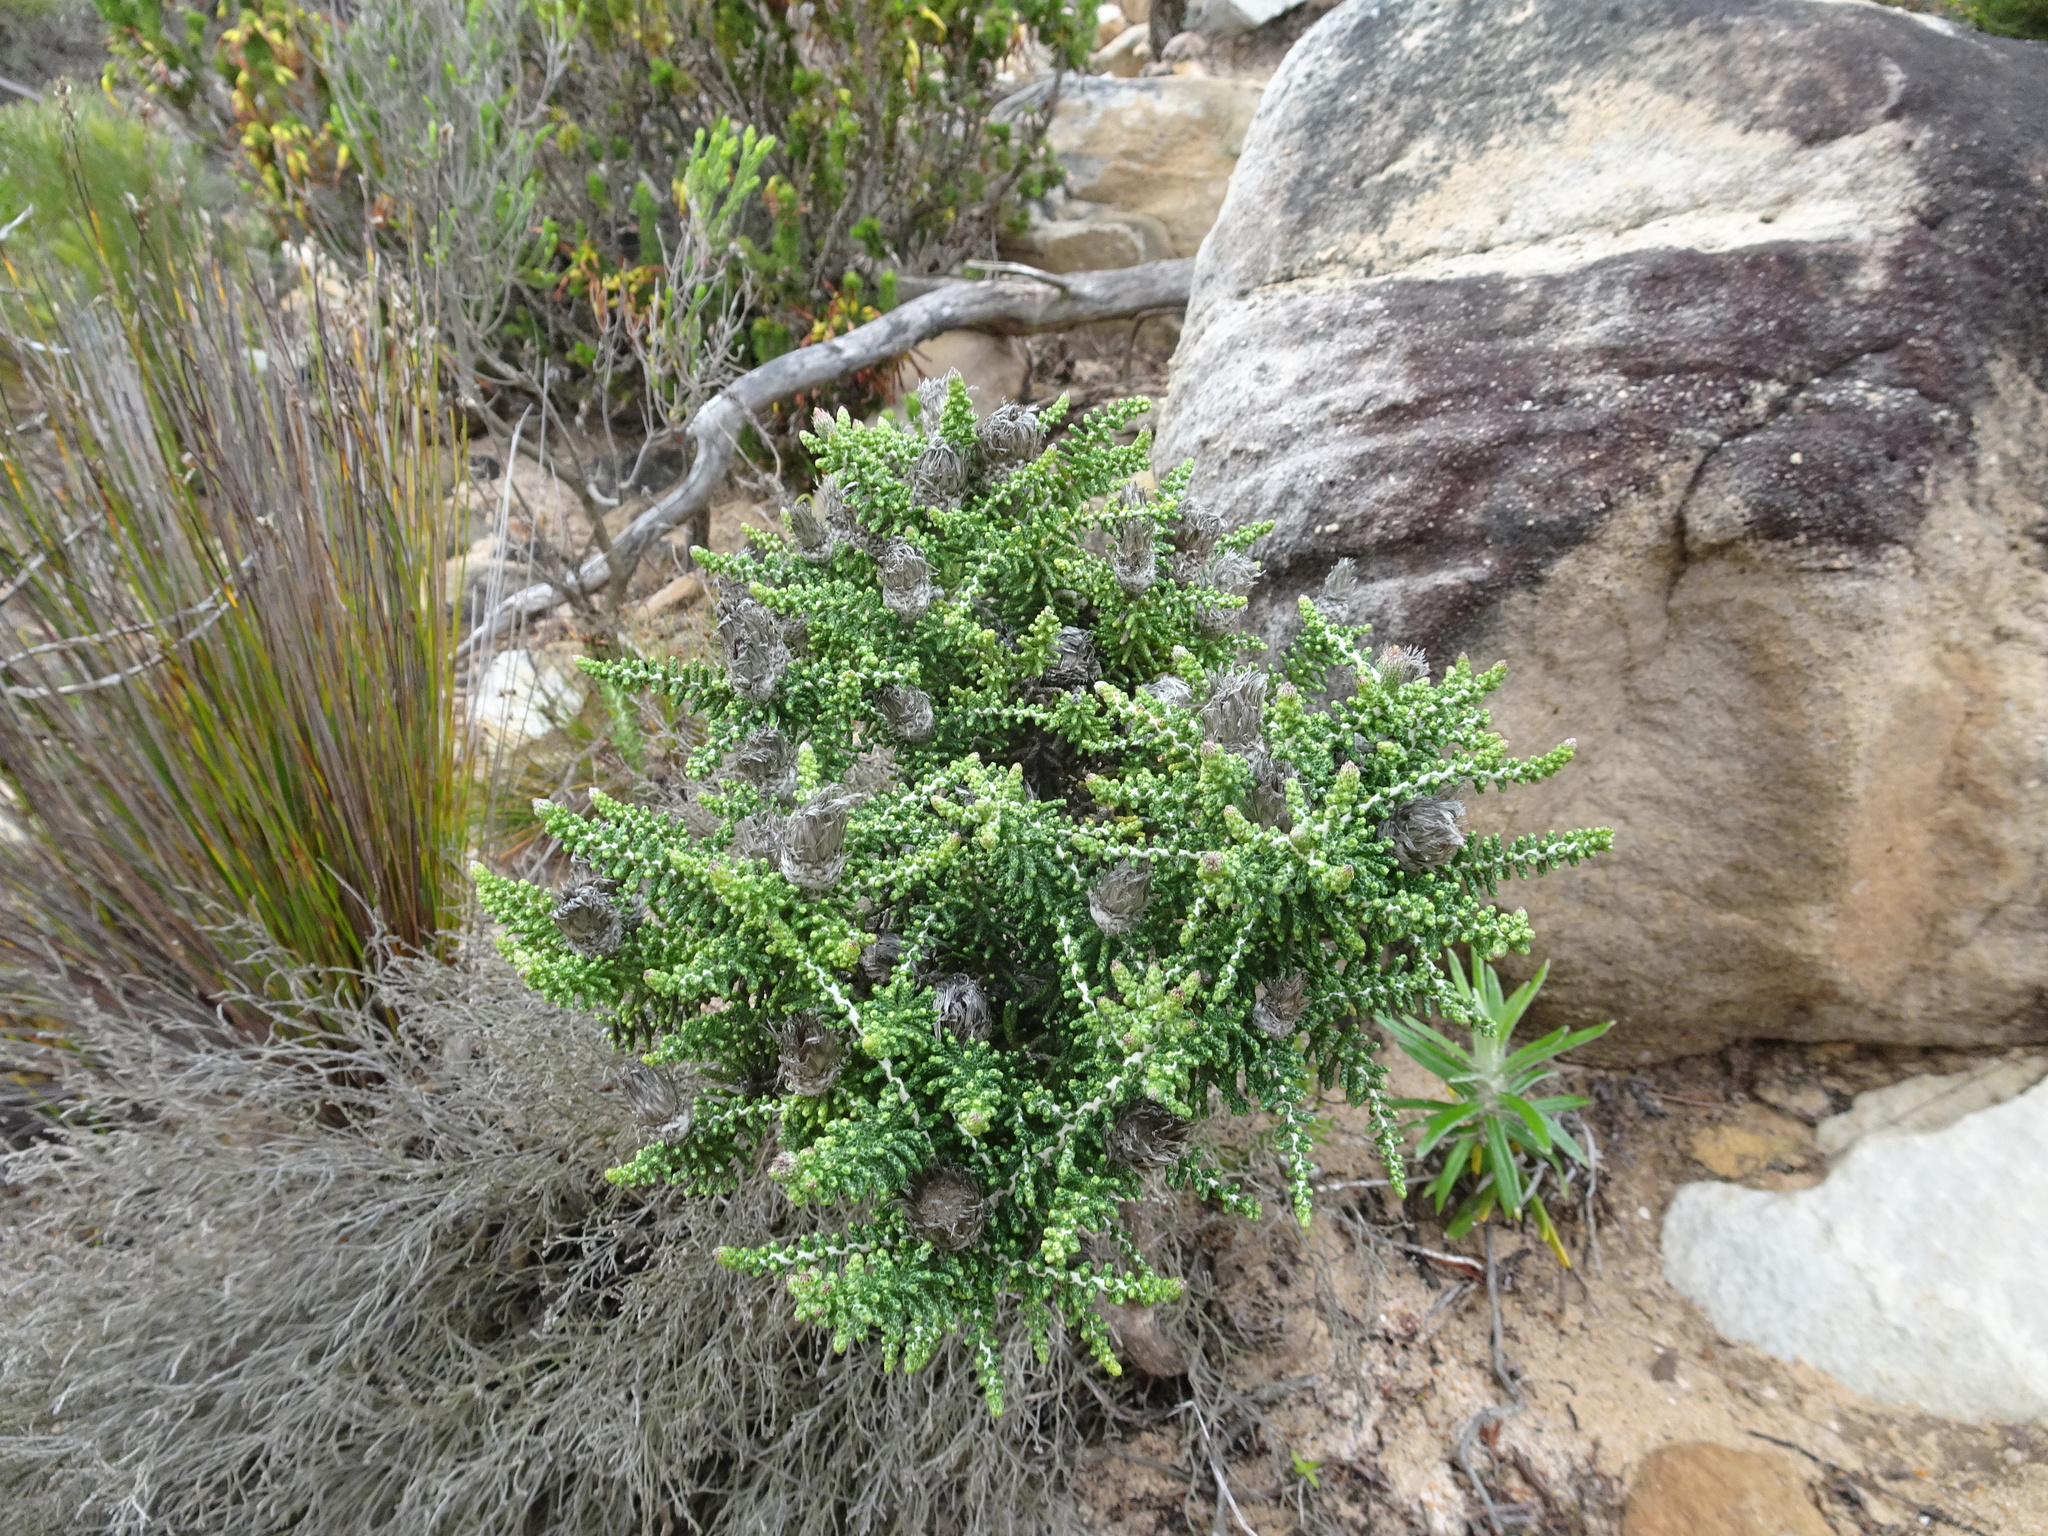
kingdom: Plantae
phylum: Tracheophyta
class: Magnoliopsida
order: Asterales
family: Asteraceae
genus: Phaenocoma
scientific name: Phaenocoma prolifera
